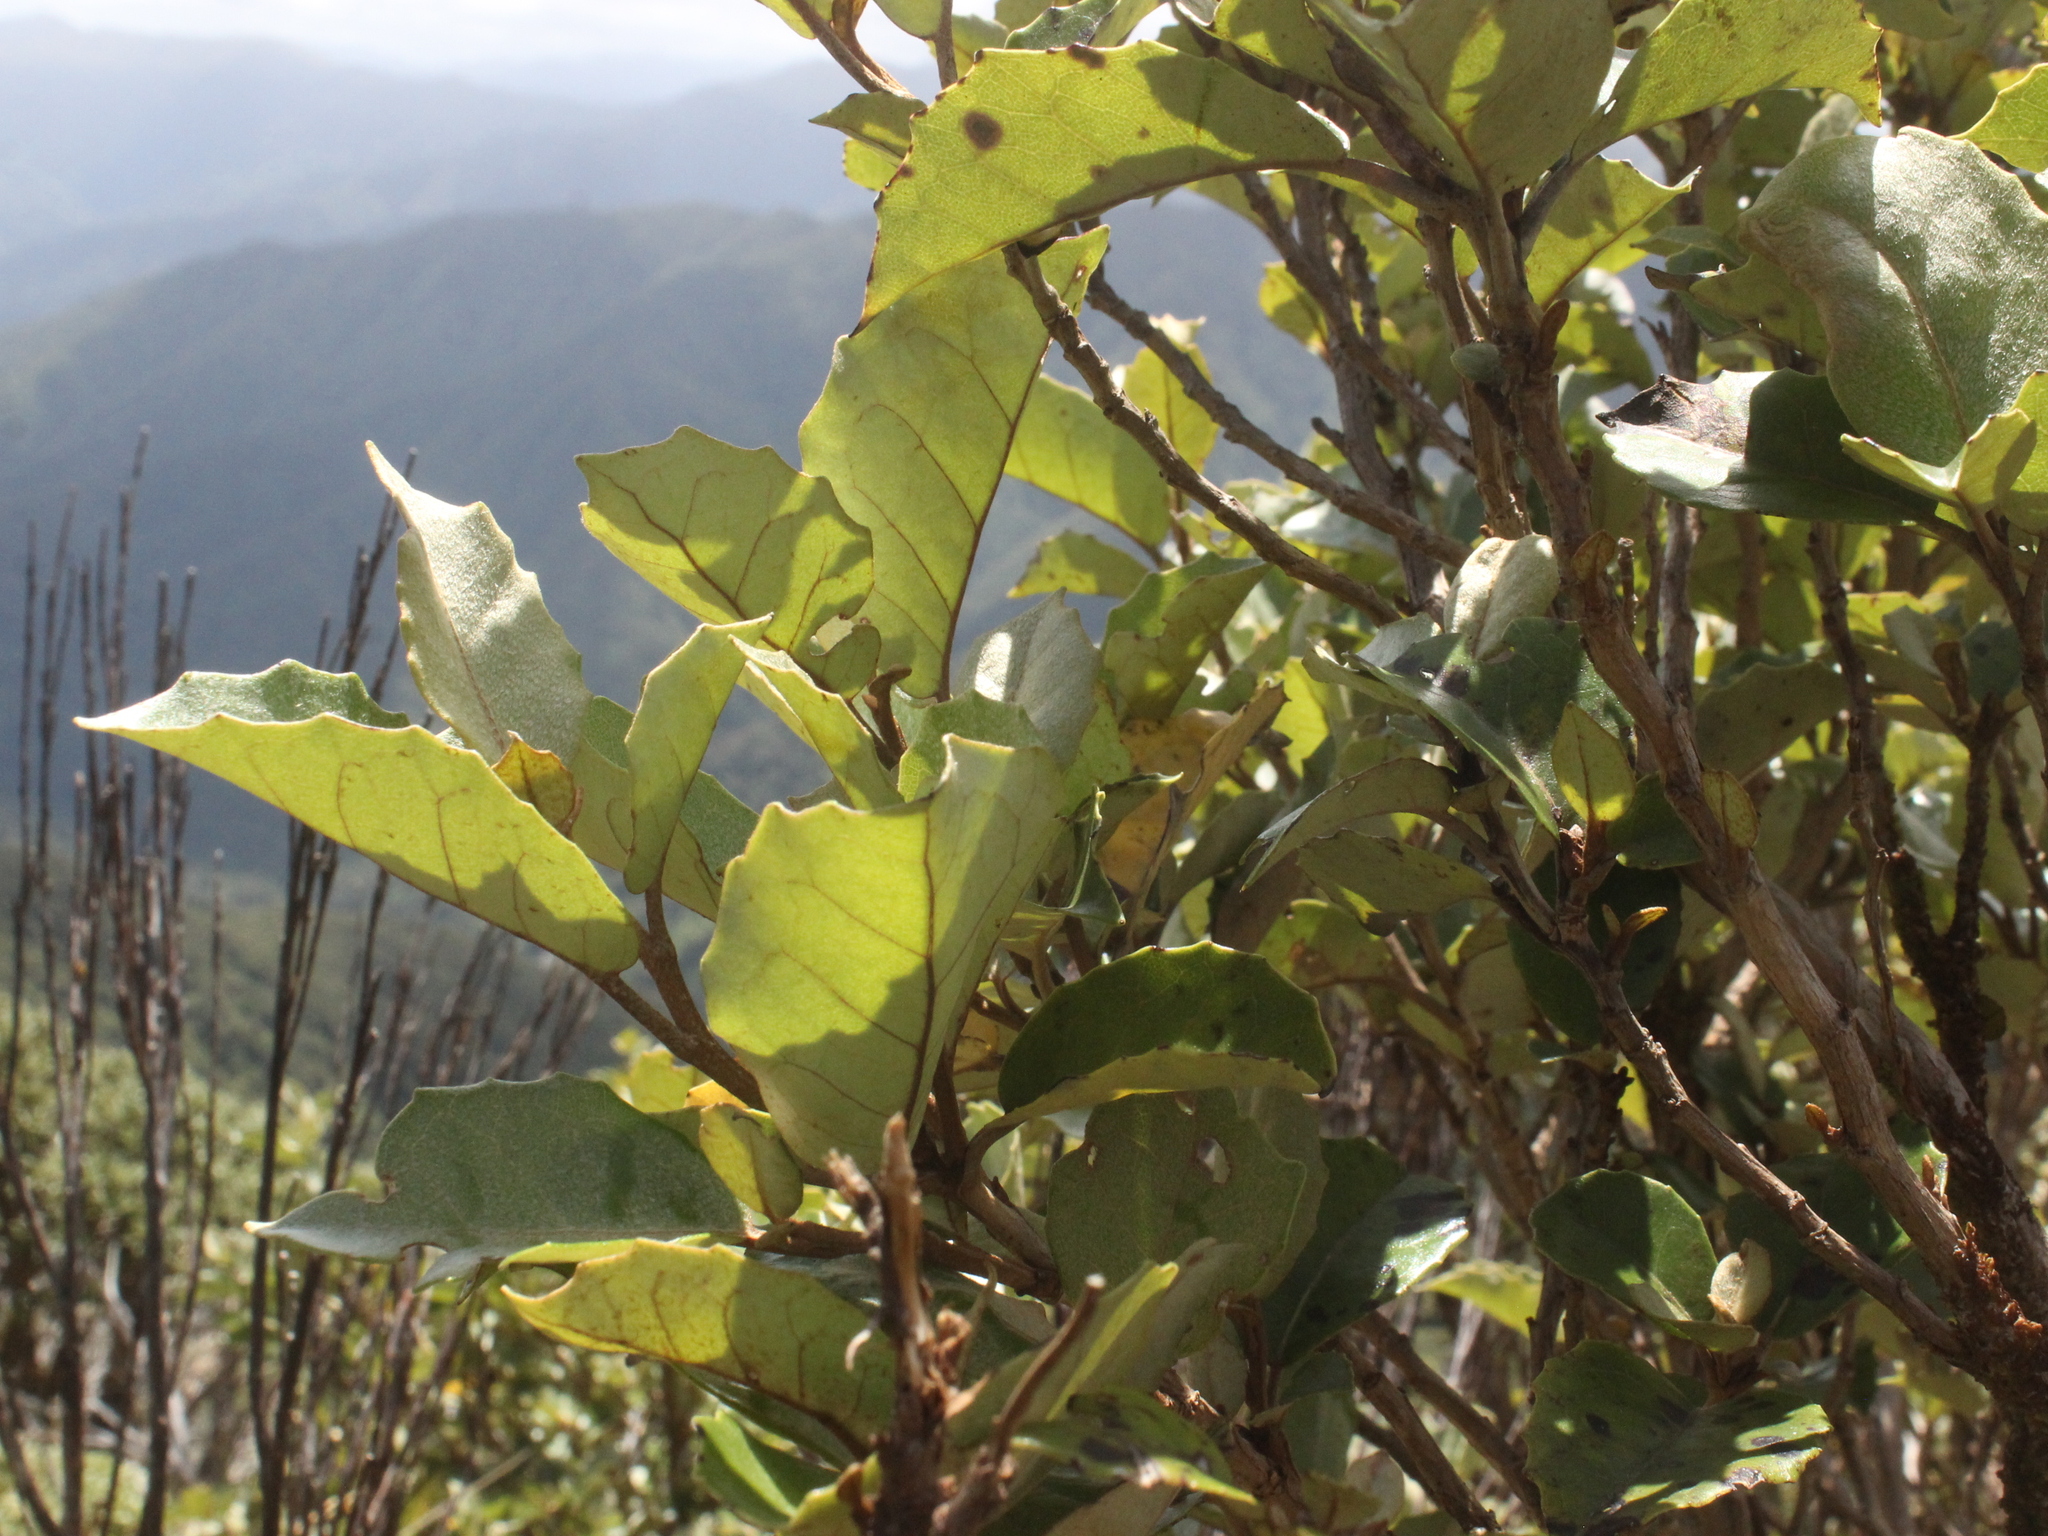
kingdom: Plantae
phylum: Tracheophyta
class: Magnoliopsida
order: Asterales
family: Asteraceae
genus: Olearia
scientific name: Olearia arborescens
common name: Glossy tree daisy
